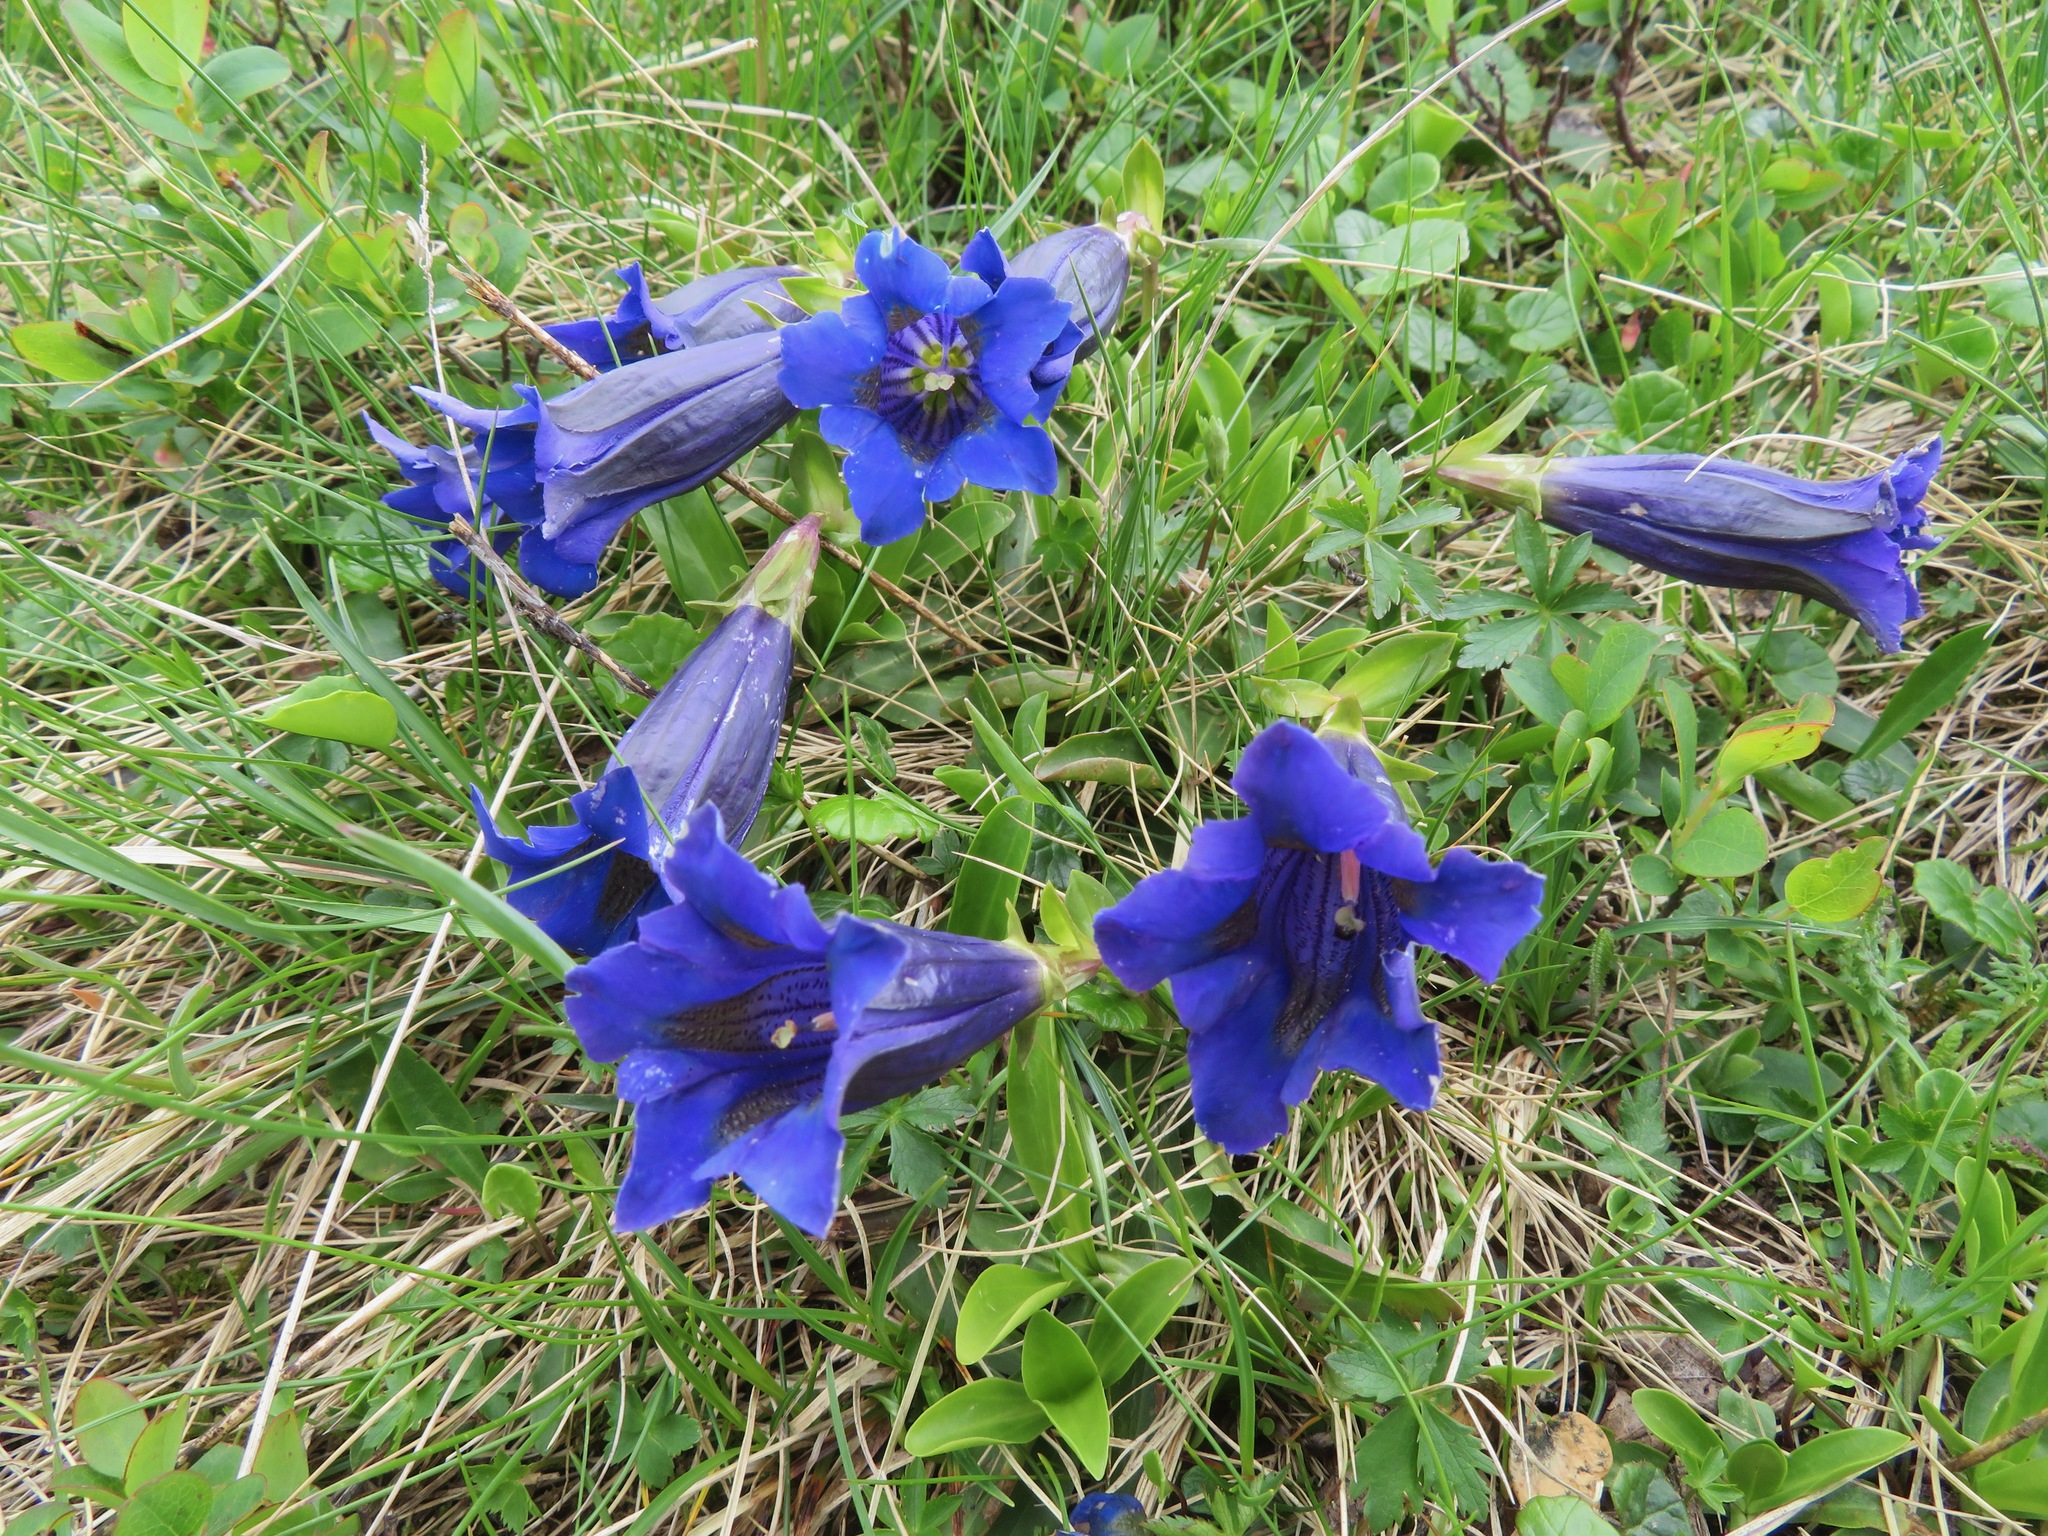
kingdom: Plantae
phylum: Tracheophyta
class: Magnoliopsida
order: Gentianales
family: Gentianaceae
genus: Gentiana
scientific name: Gentiana acaulis
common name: Trumpet gentian
